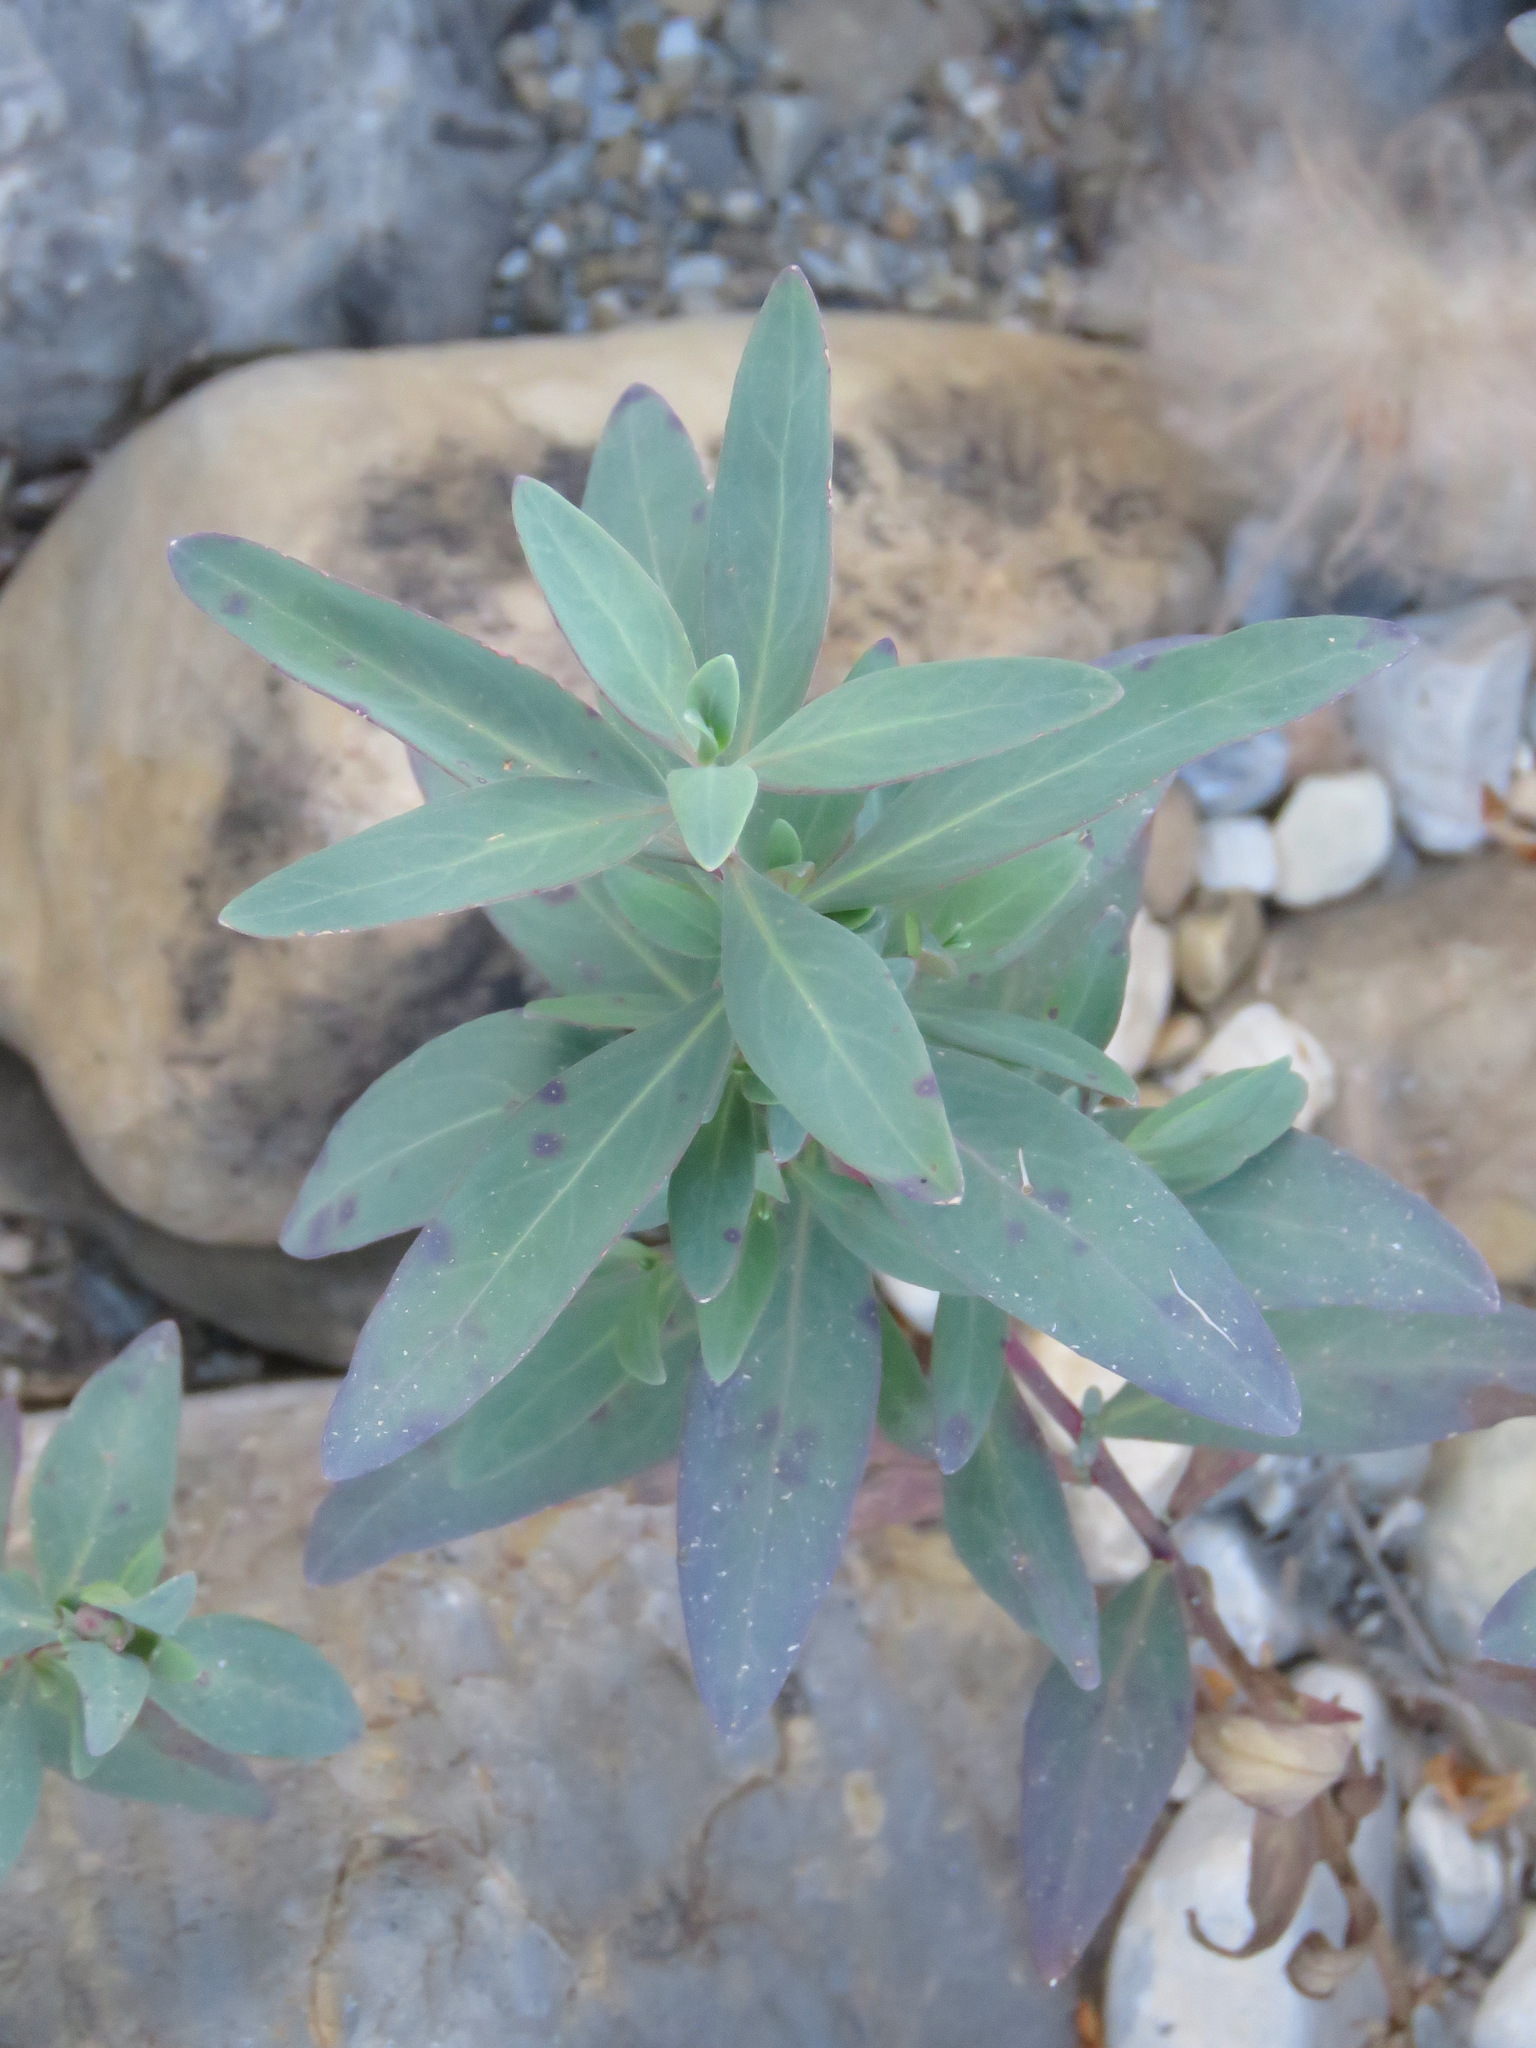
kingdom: Plantae
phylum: Tracheophyta
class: Magnoliopsida
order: Myrtales
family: Onagraceae
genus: Chamaenerion
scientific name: Chamaenerion latifolium
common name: Dwarf fireweed
